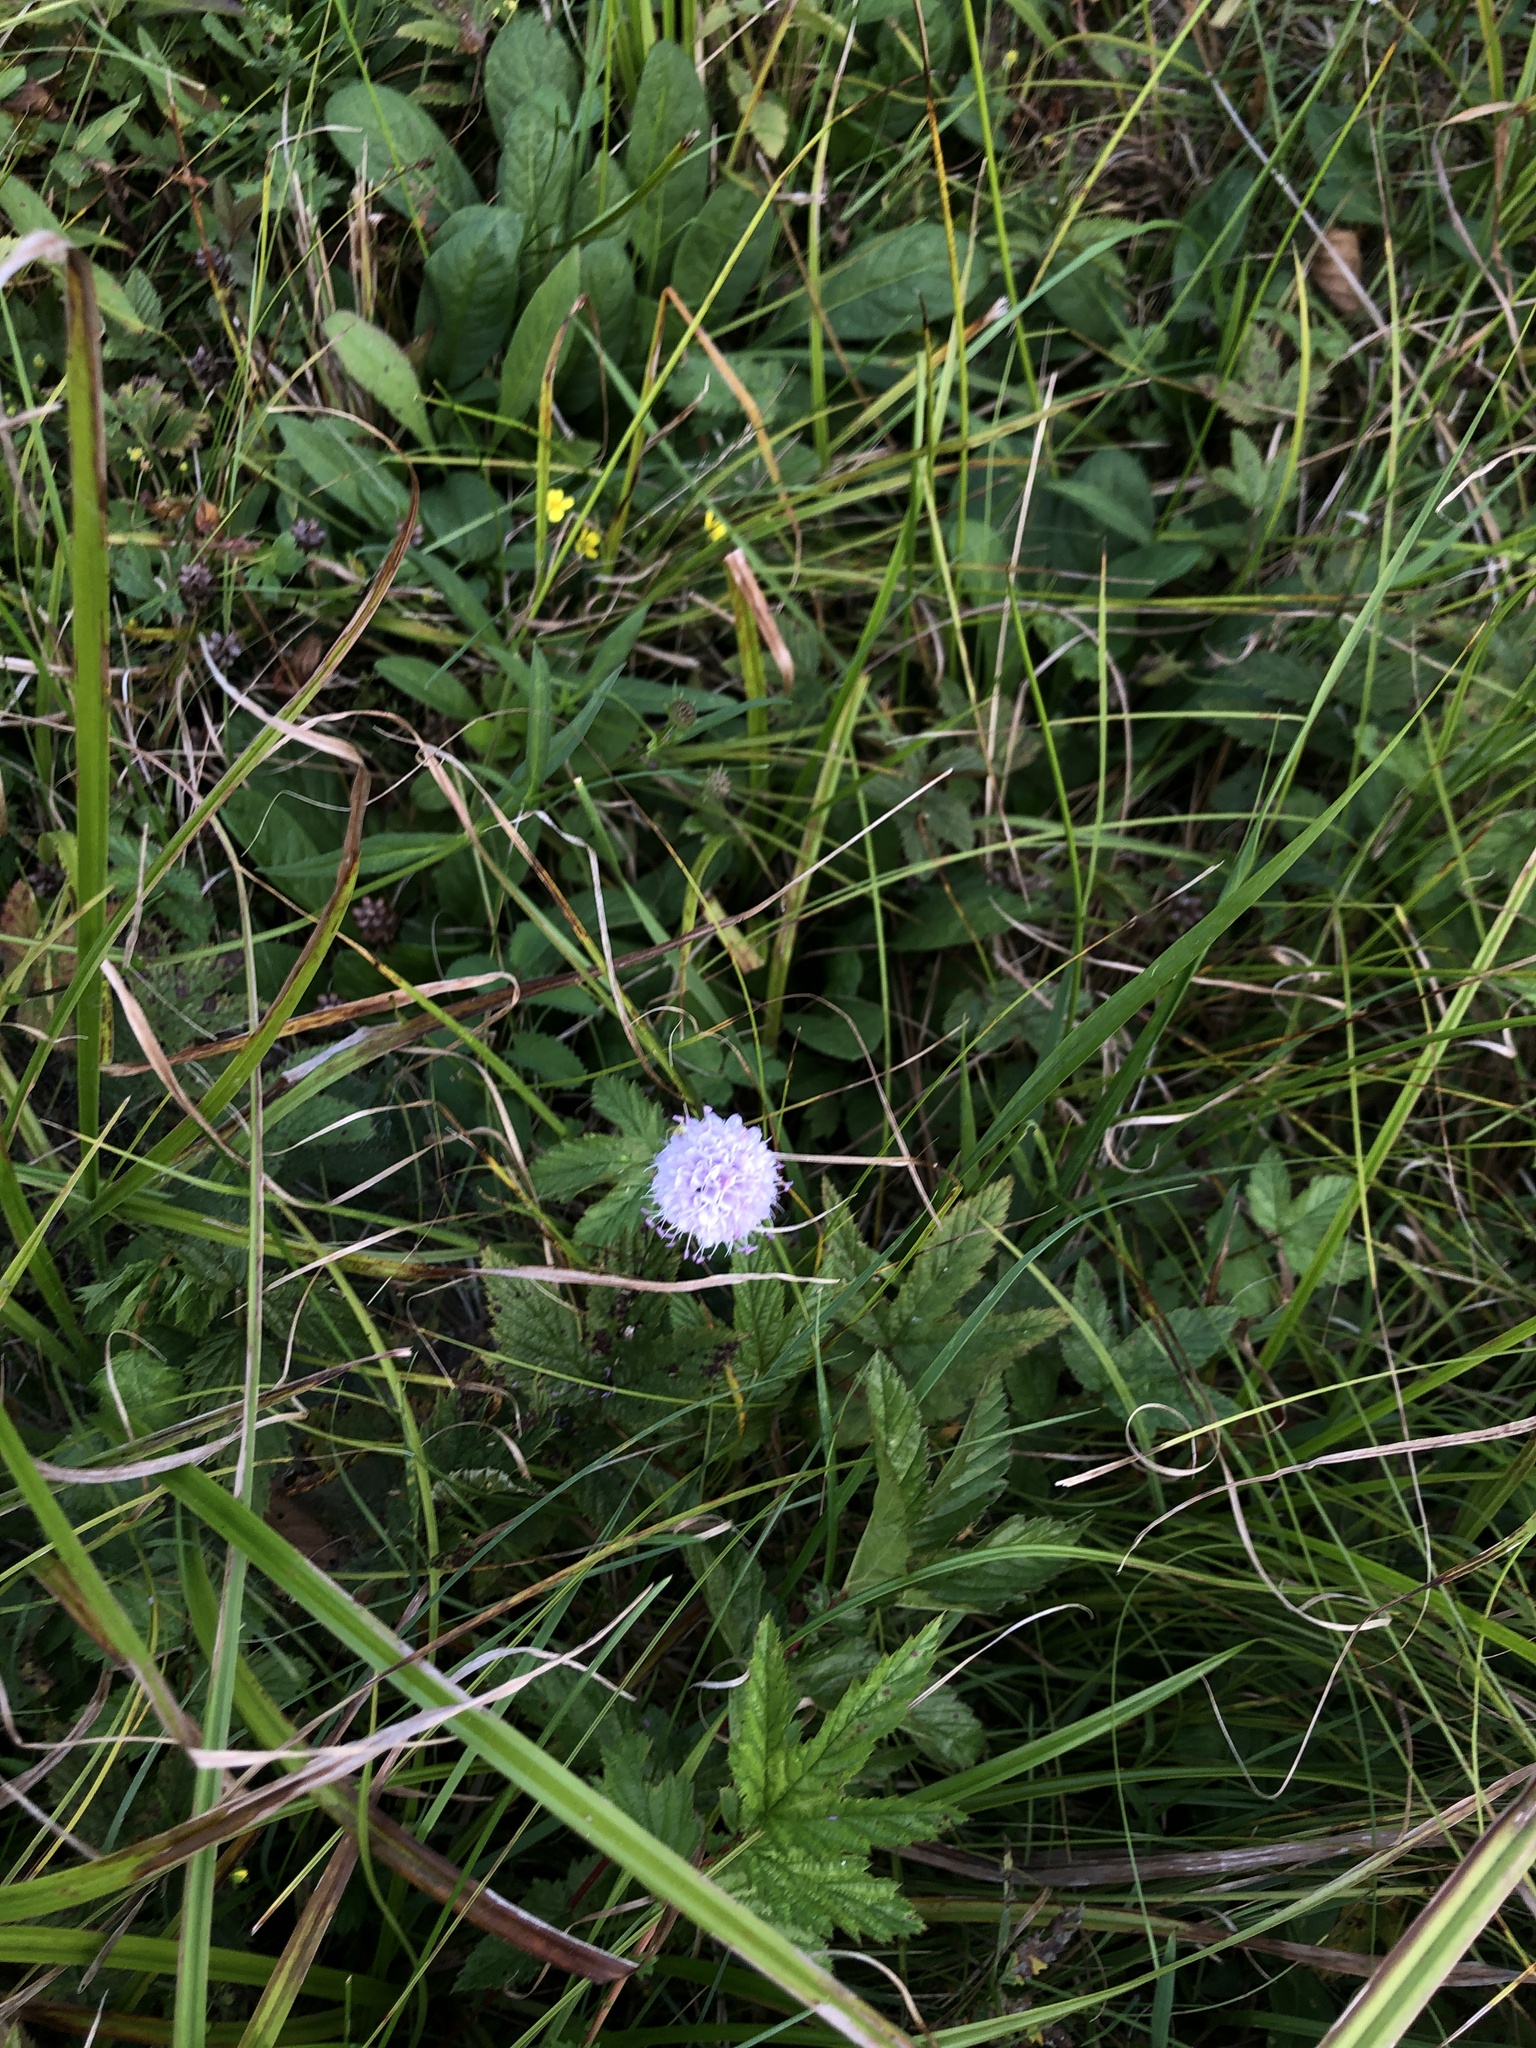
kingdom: Plantae
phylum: Tracheophyta
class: Magnoliopsida
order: Dipsacales
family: Caprifoliaceae
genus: Succisella
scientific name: Succisella inflexa
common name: Southern succisella
